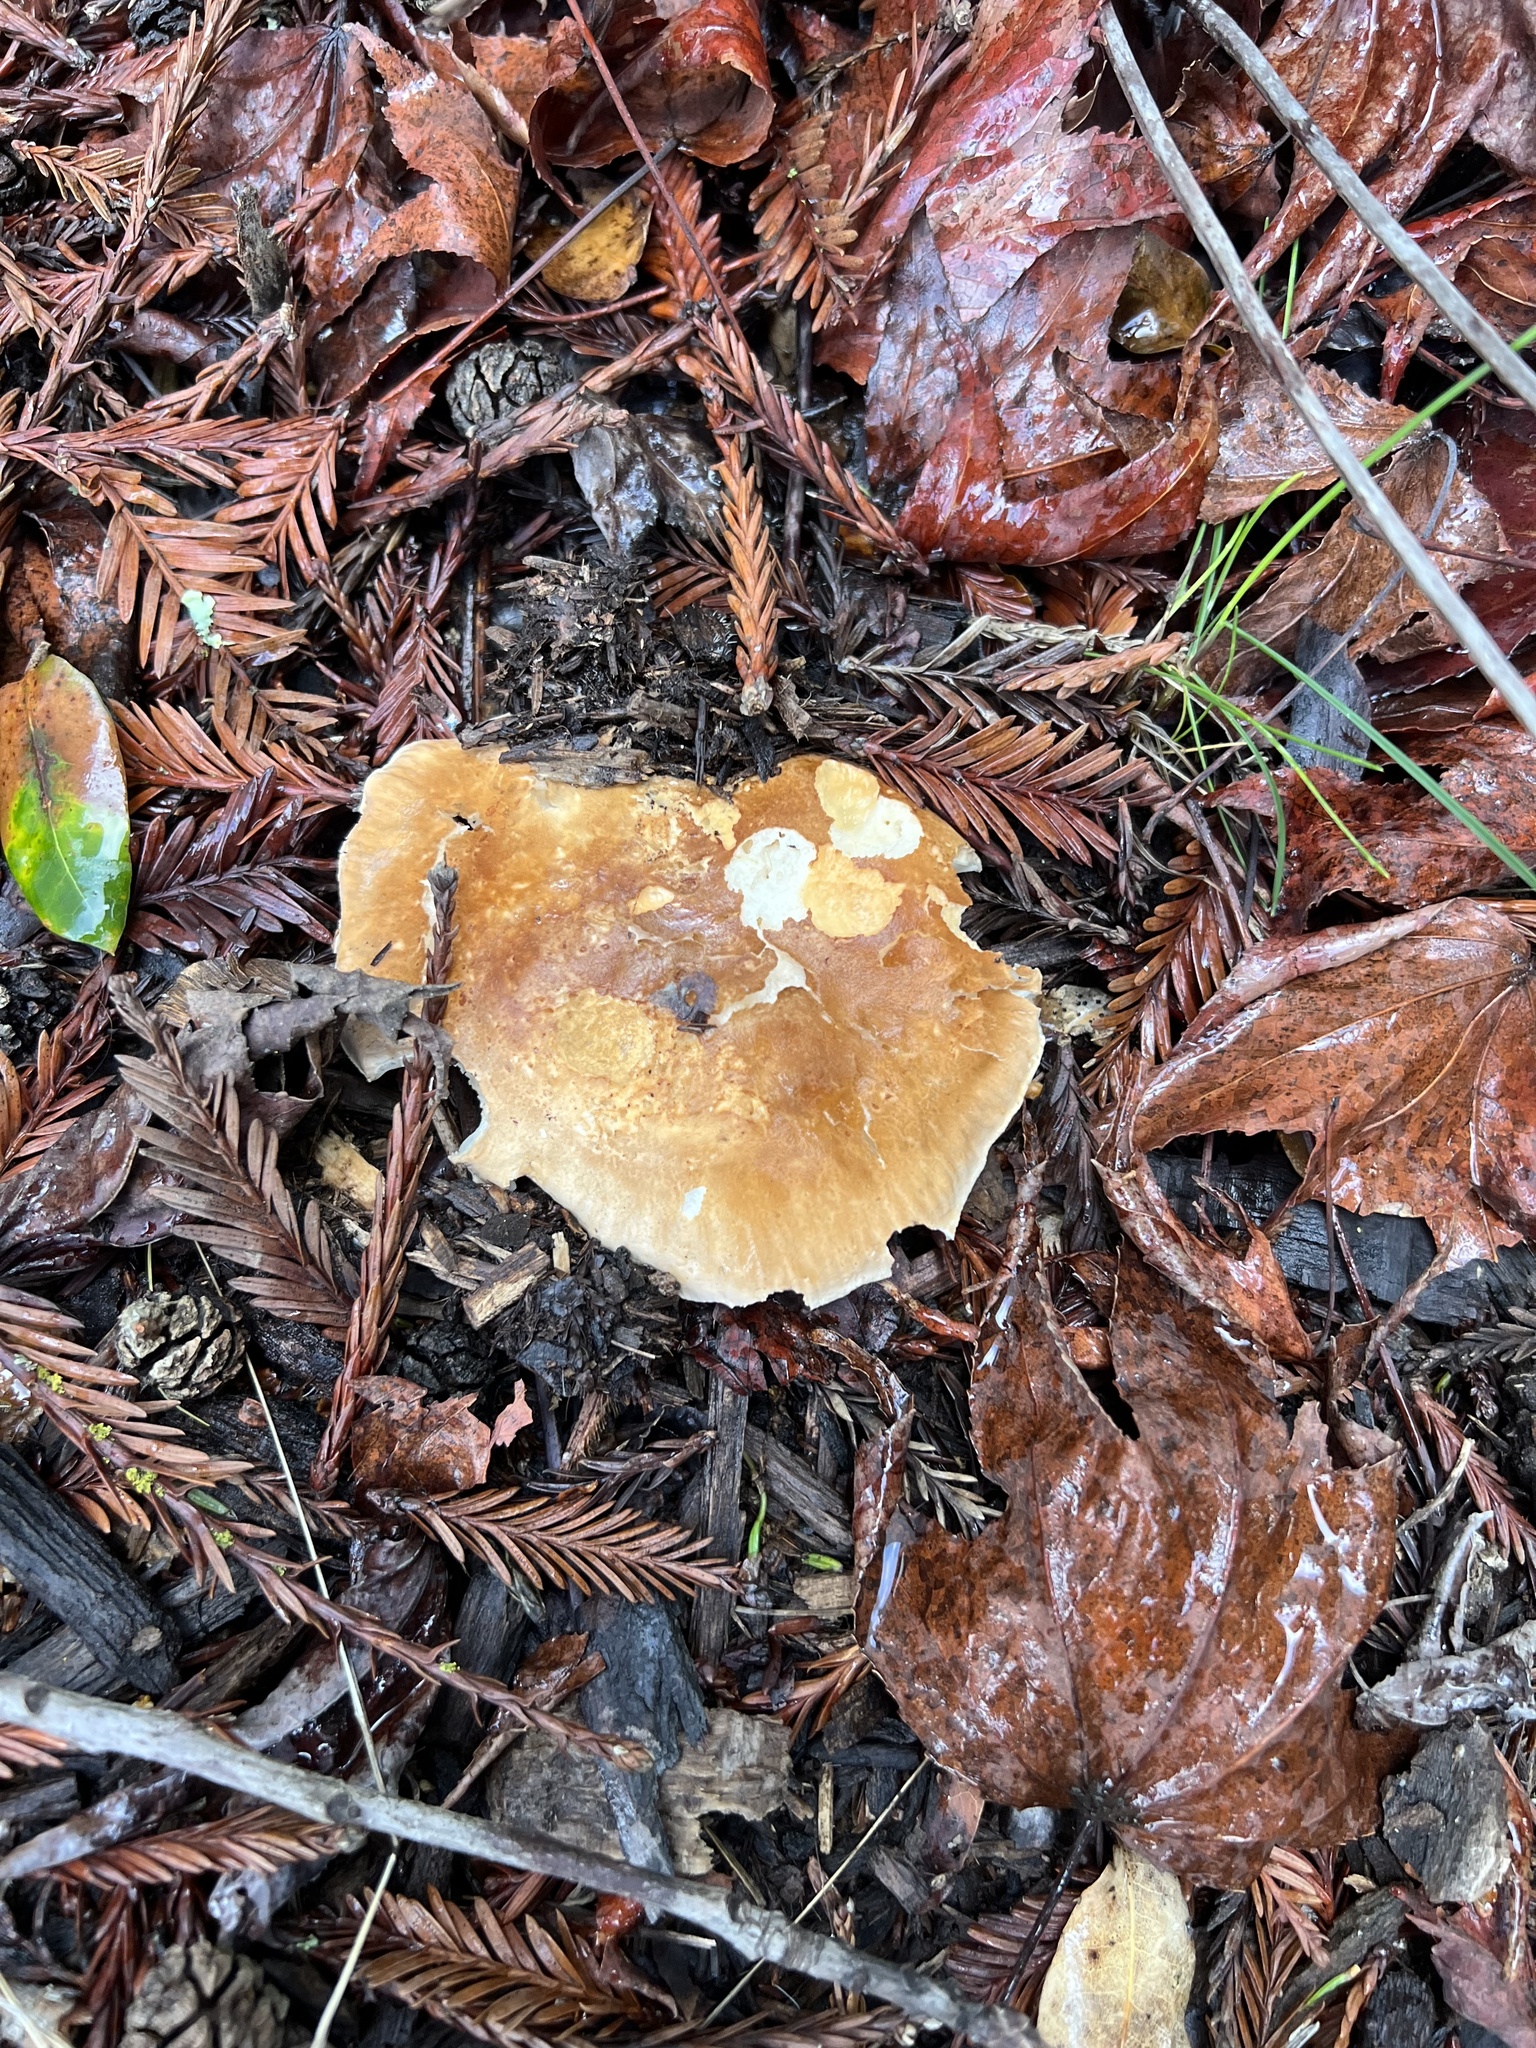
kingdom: Fungi
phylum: Basidiomycota
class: Agaricomycetes
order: Agaricales
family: Tricholomataceae
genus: Leucopaxillus
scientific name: Leucopaxillus gentianeus
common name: Bitter funnel
